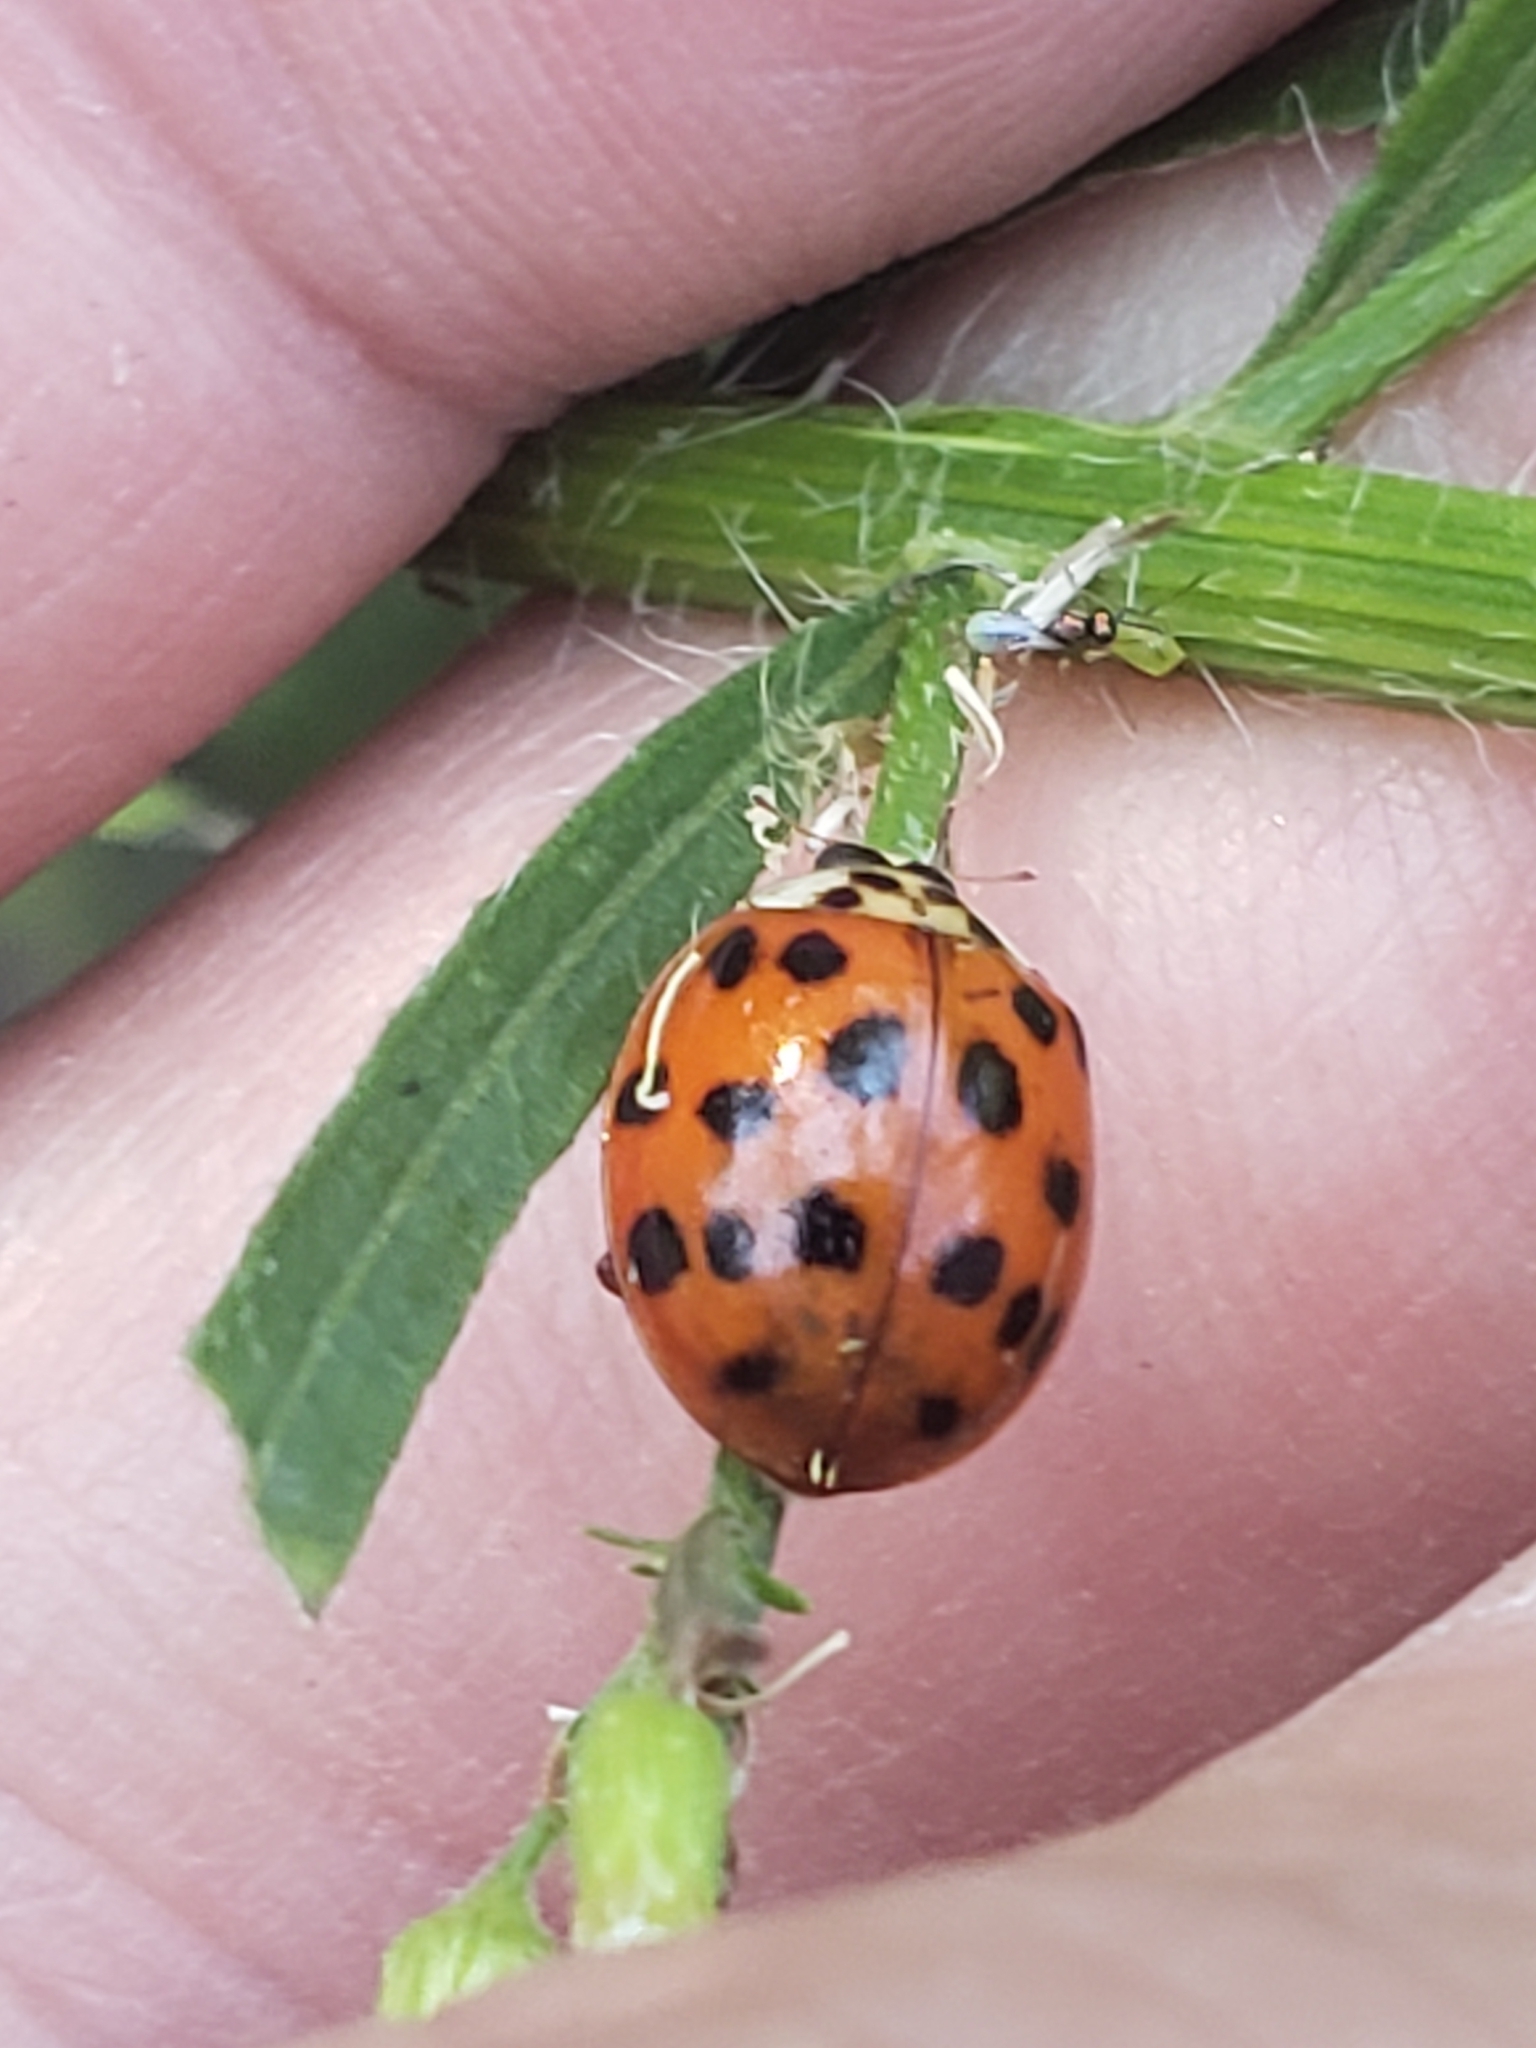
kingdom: Animalia
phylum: Arthropoda
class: Insecta
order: Coleoptera
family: Coccinellidae
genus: Harmonia
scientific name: Harmonia axyridis
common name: Harlequin ladybird
